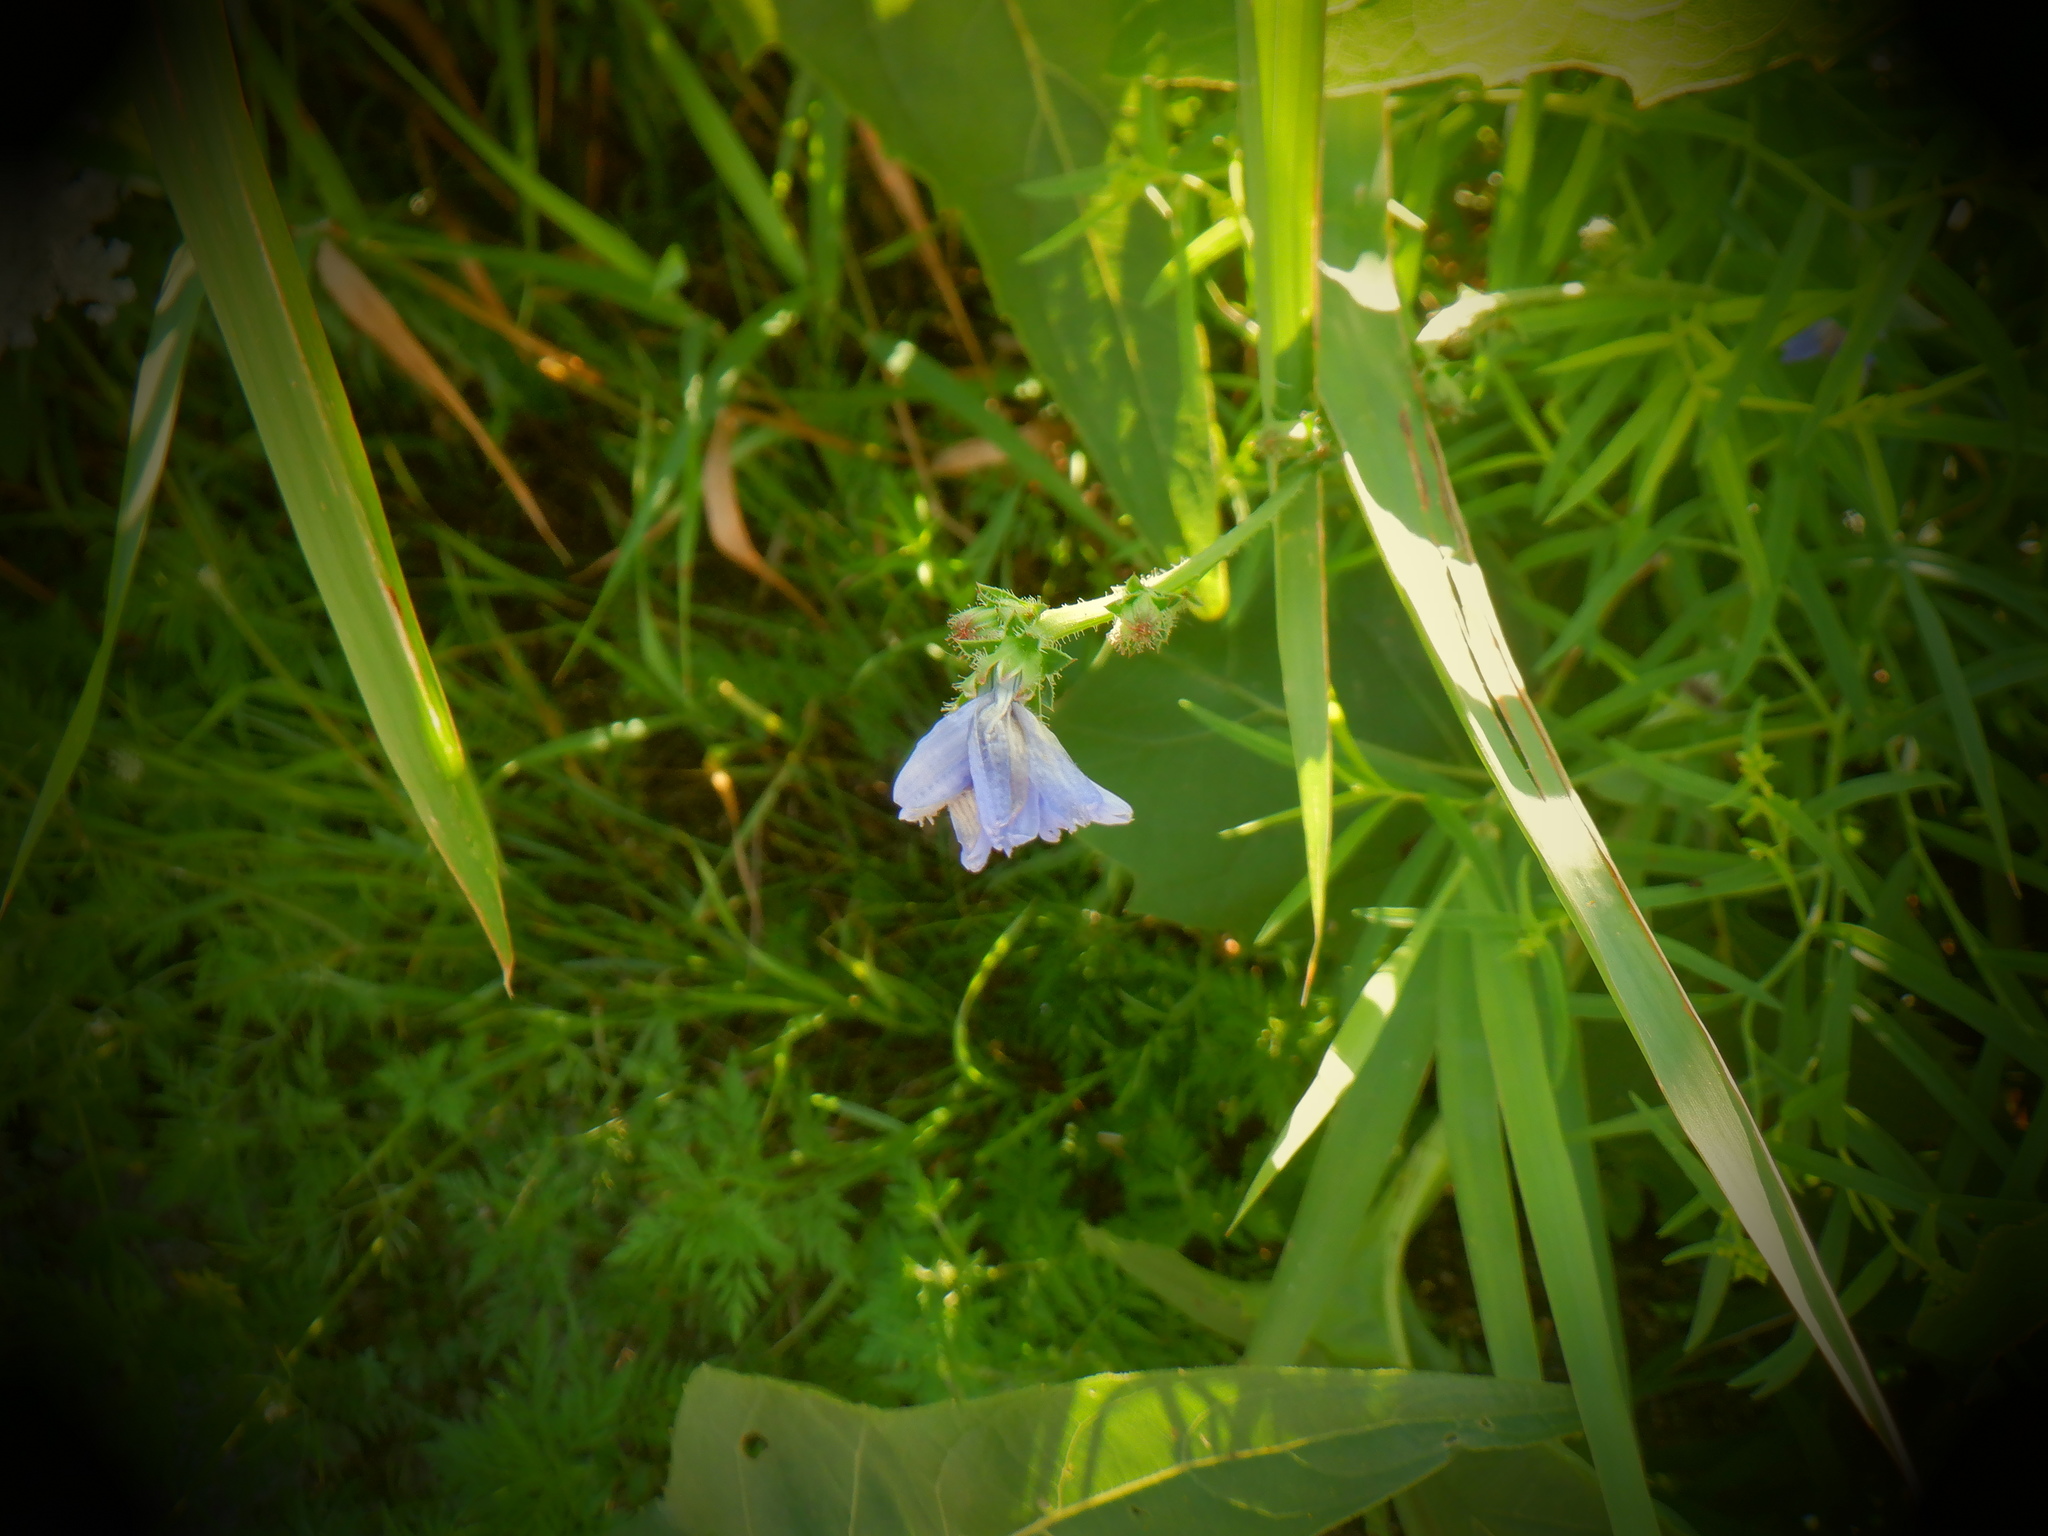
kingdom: Plantae
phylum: Tracheophyta
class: Magnoliopsida
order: Asterales
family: Asteraceae
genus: Cichorium
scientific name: Cichorium intybus
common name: Chicory
